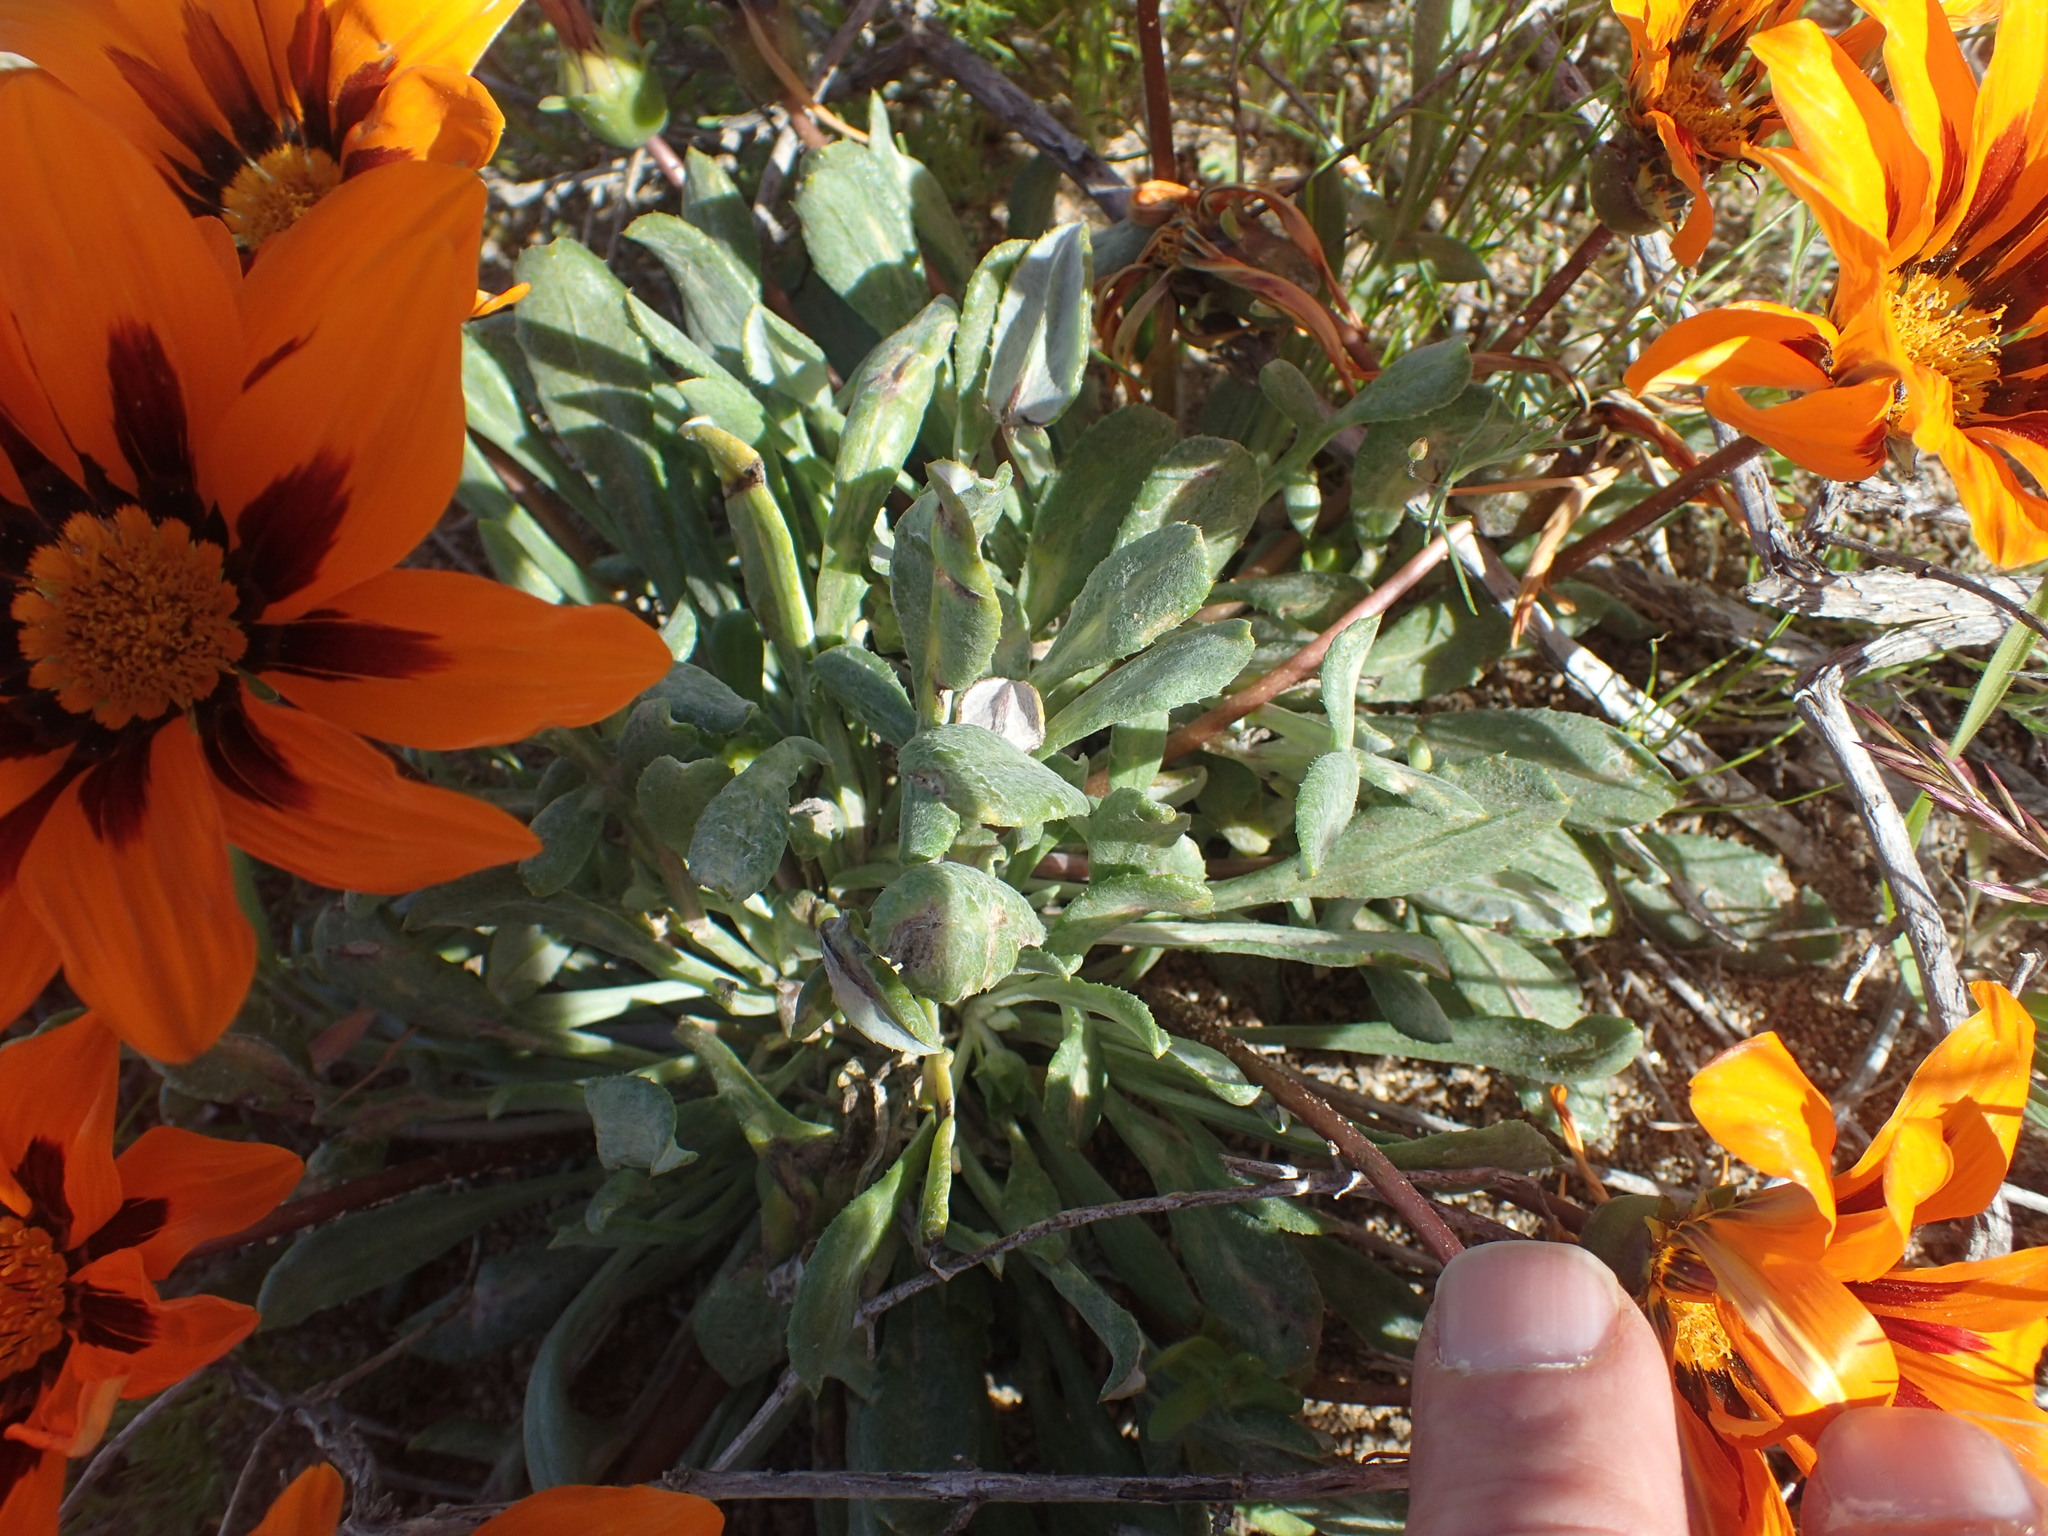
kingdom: Plantae
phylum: Tracheophyta
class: Magnoliopsida
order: Asterales
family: Asteraceae
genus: Gazania
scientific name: Gazania heterochaeta
